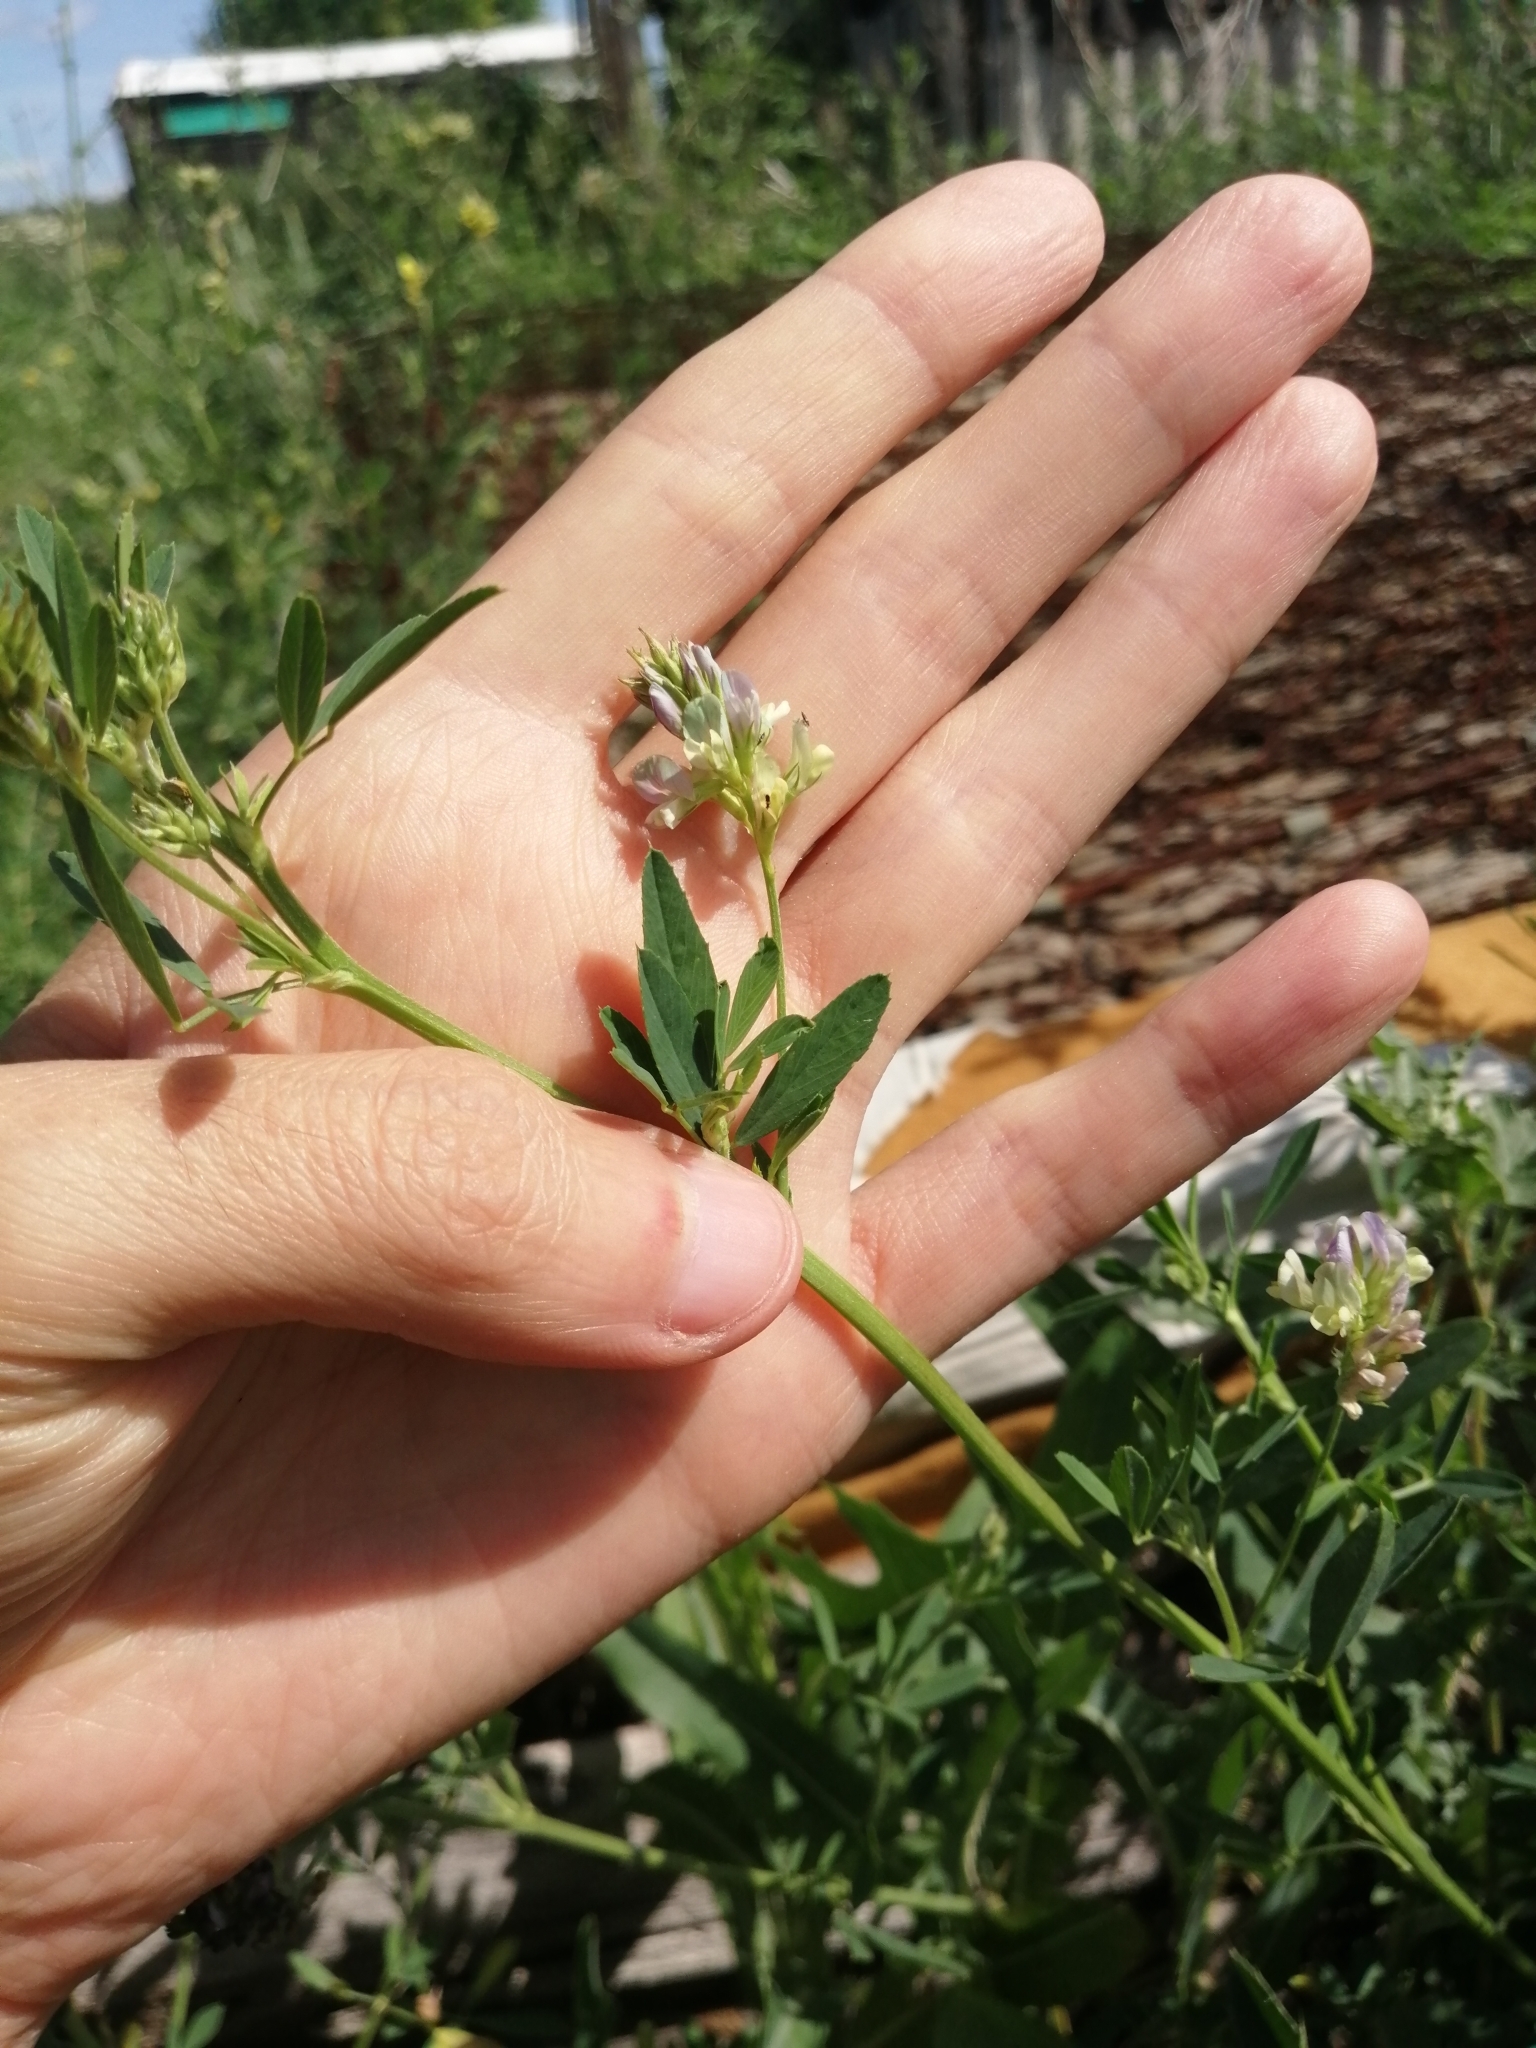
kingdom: Plantae
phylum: Tracheophyta
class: Magnoliopsida
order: Fabales
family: Fabaceae
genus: Medicago
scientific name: Medicago varia
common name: Sand lucerne
